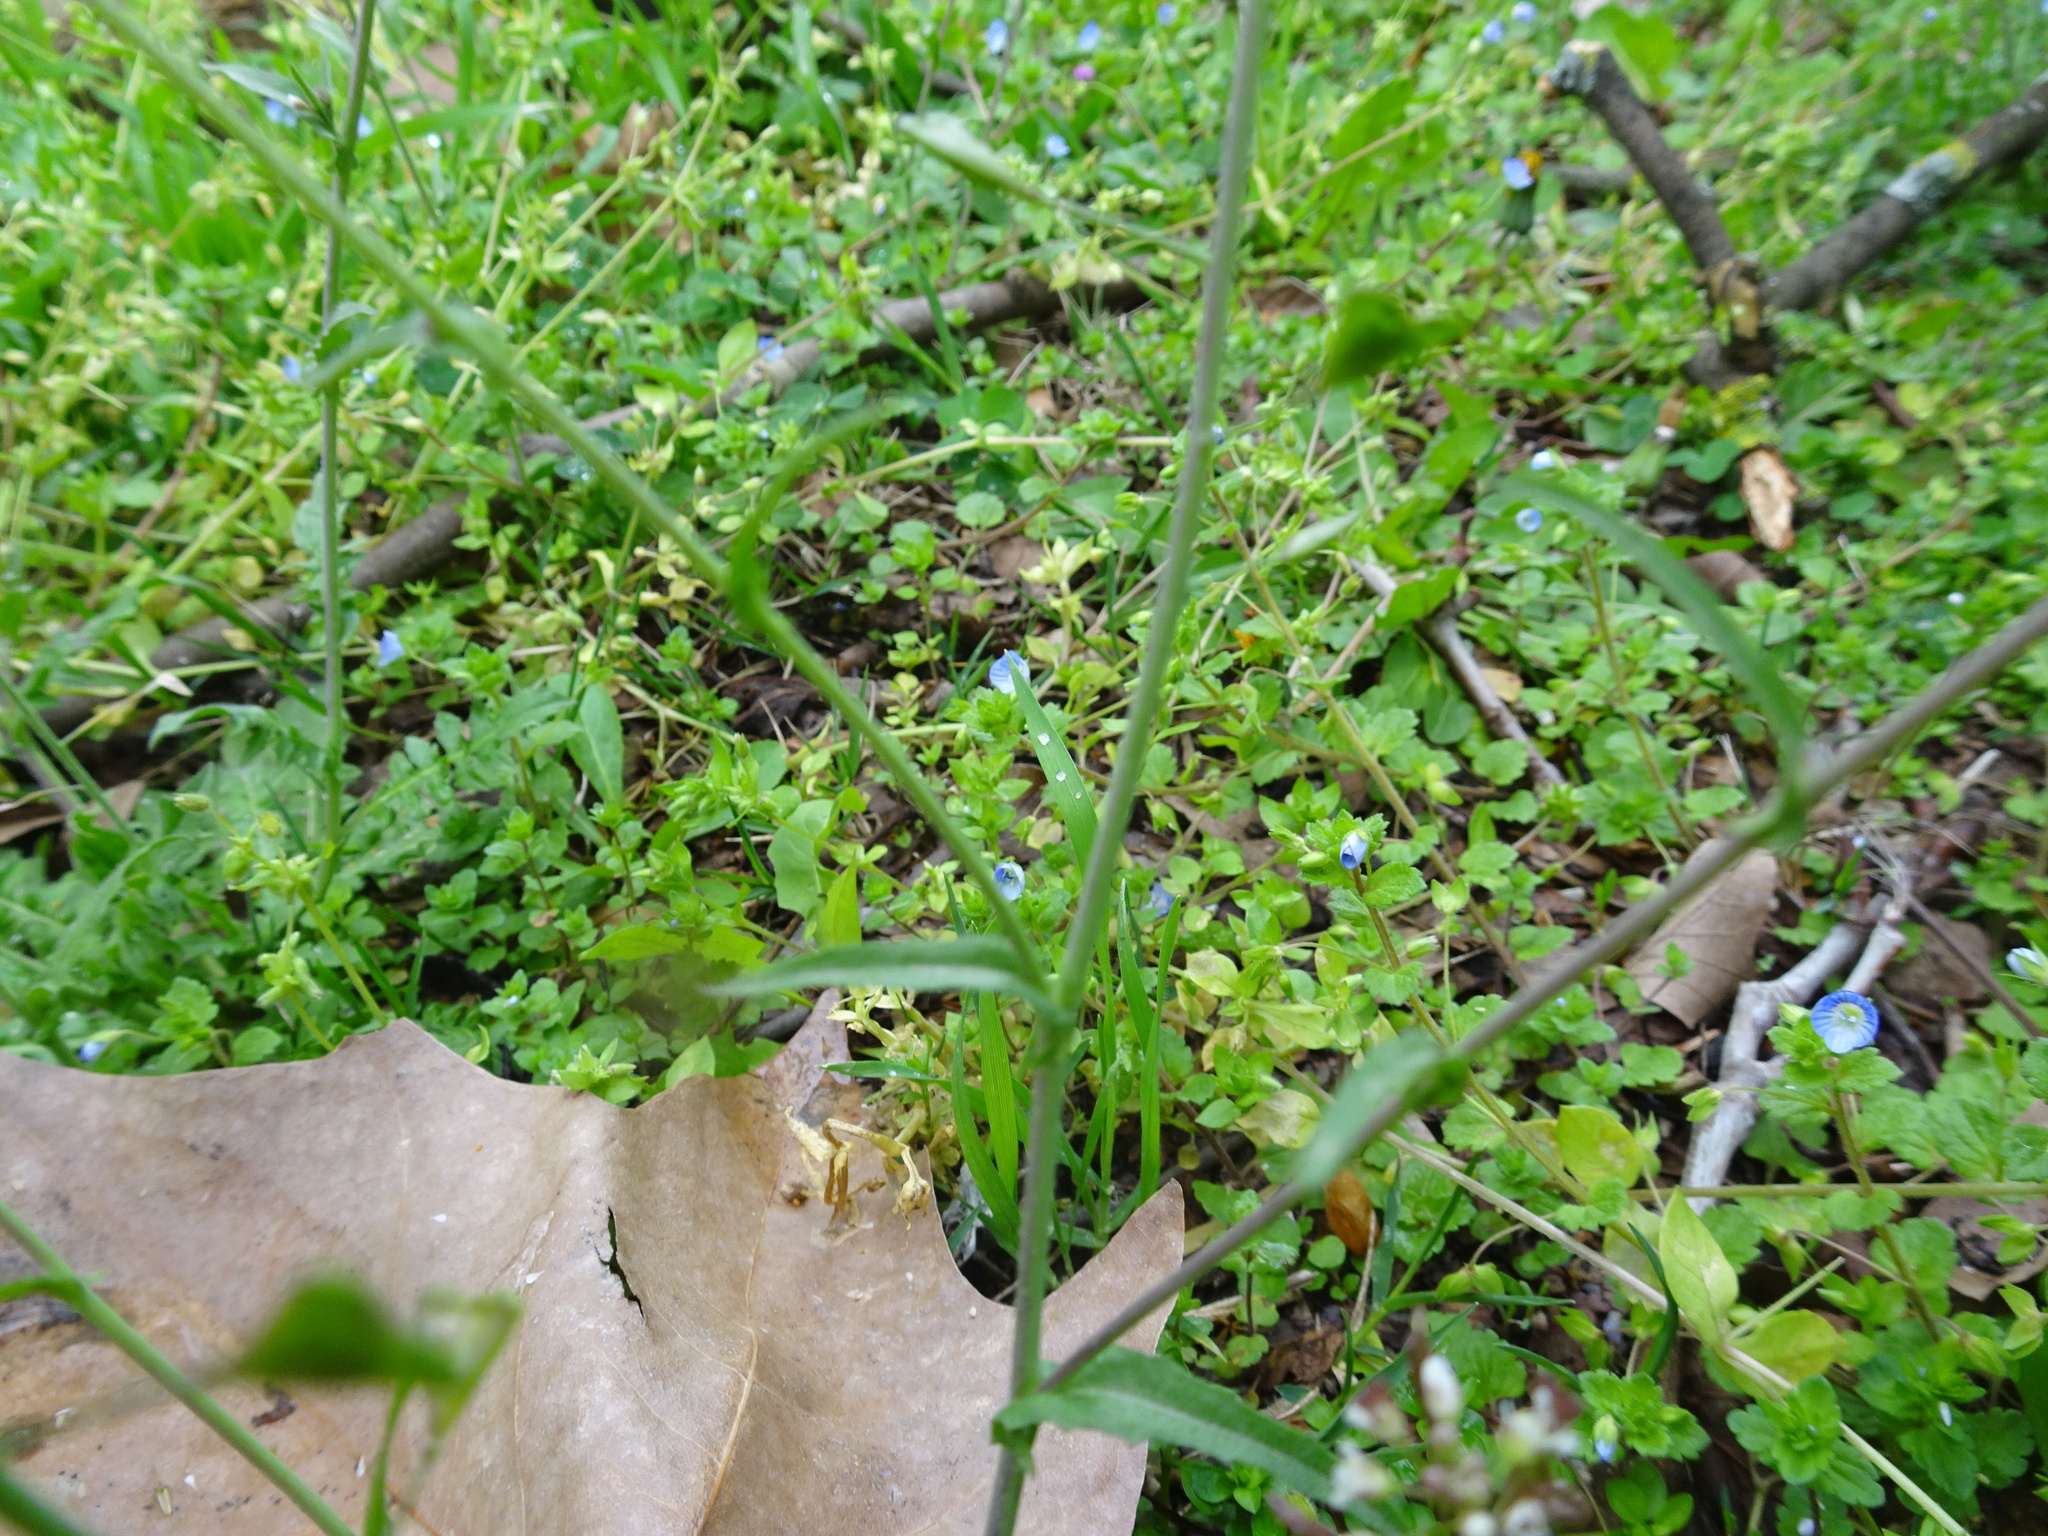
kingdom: Plantae
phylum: Tracheophyta
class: Magnoliopsida
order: Brassicales
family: Brassicaceae
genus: Capsella
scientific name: Capsella rubella
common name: Pink shepherd's-purse
